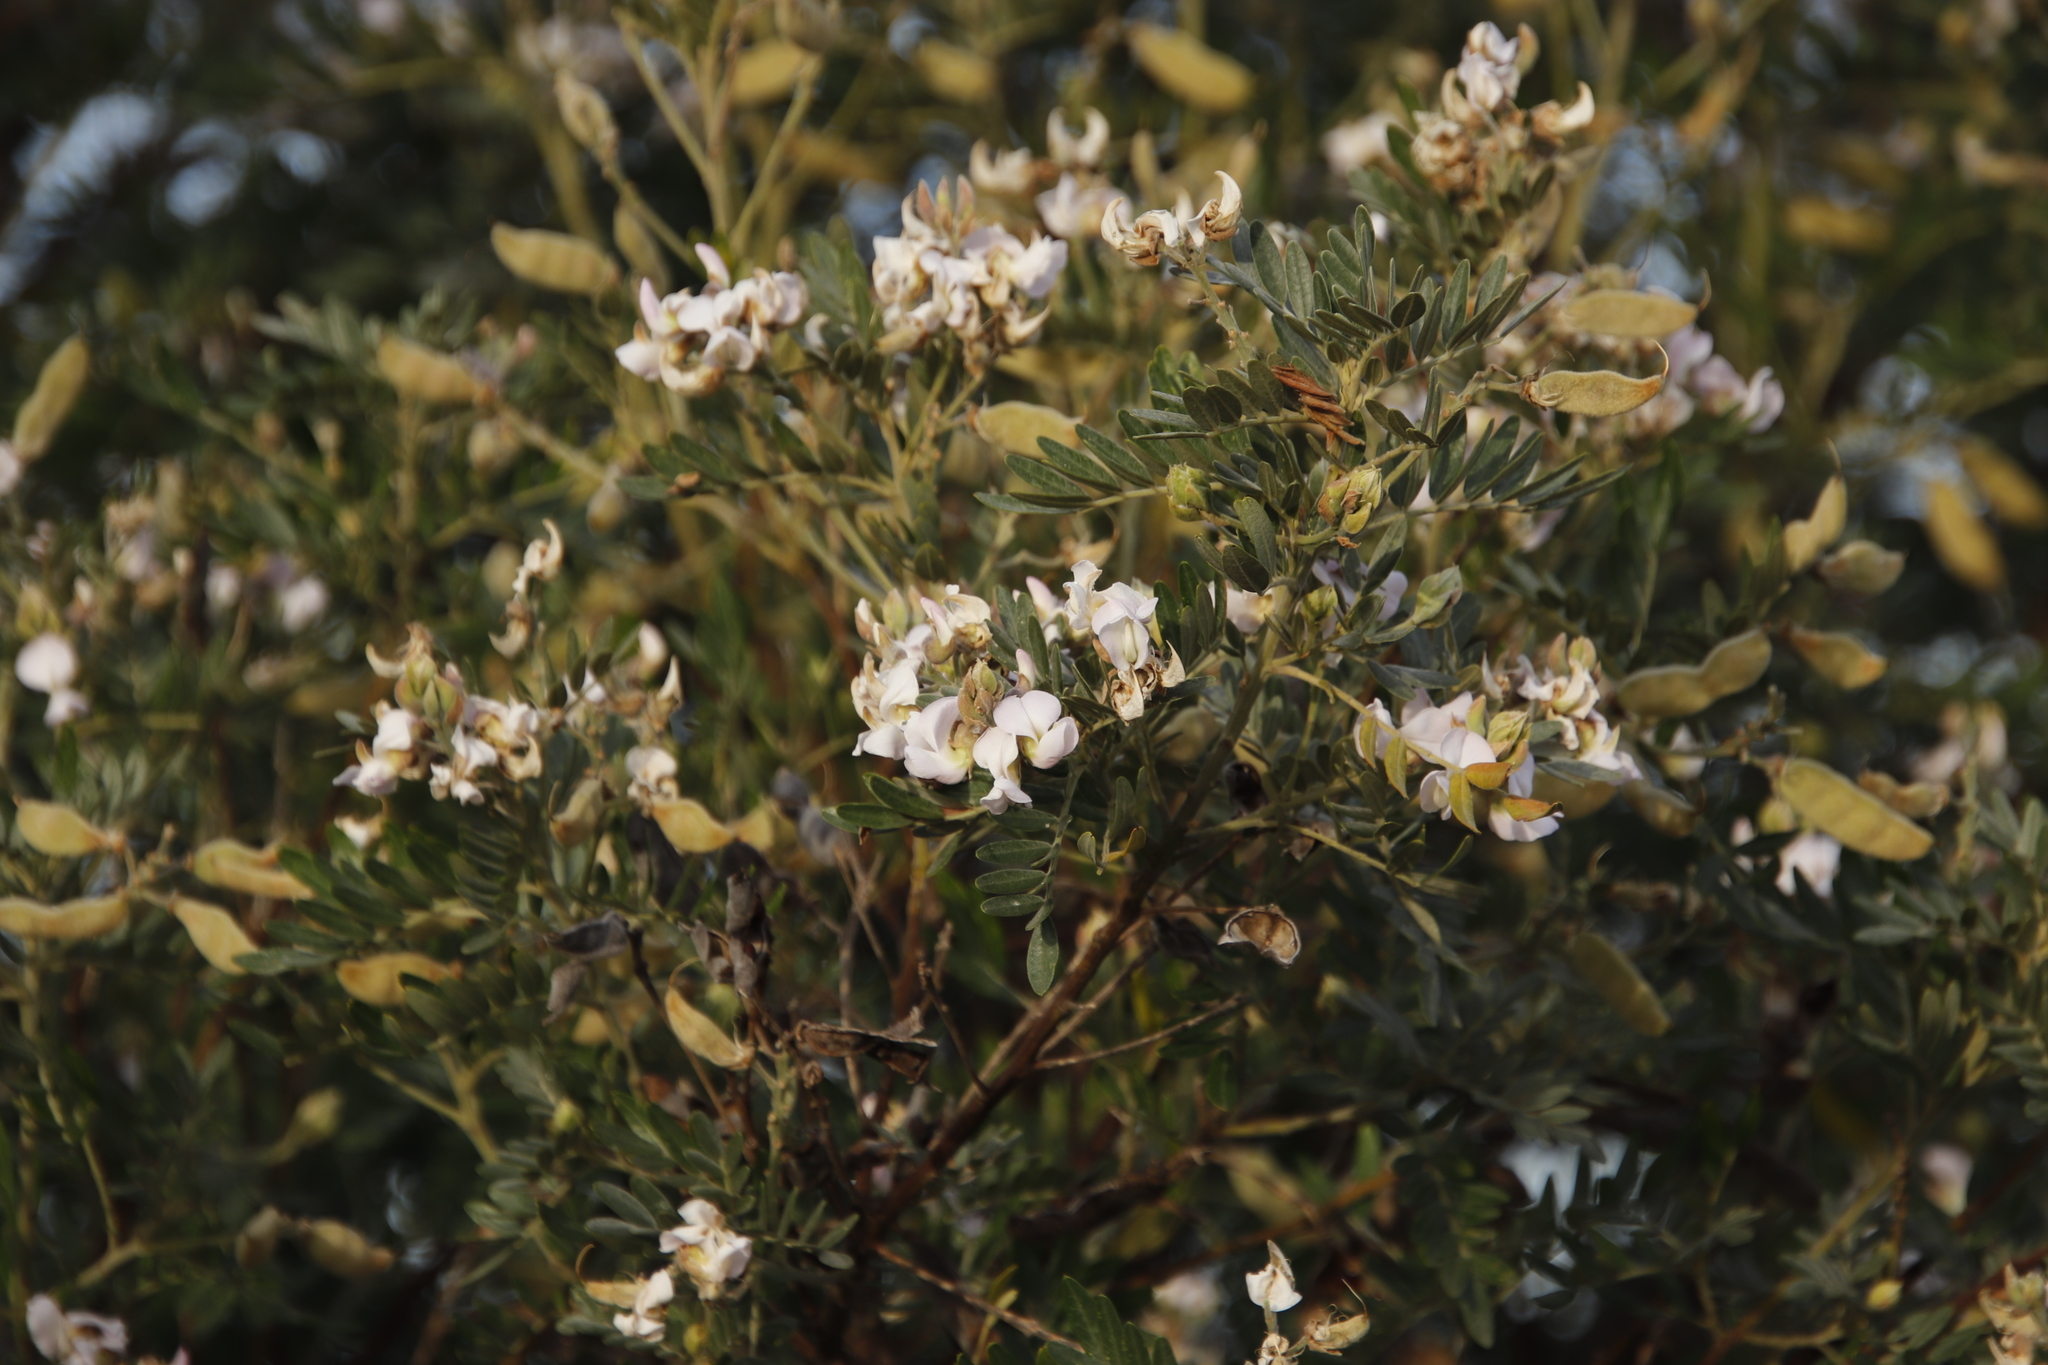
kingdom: Plantae
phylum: Tracheophyta
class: Magnoliopsida
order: Fabales
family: Fabaceae
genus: Virgilia
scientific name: Virgilia oroboides
